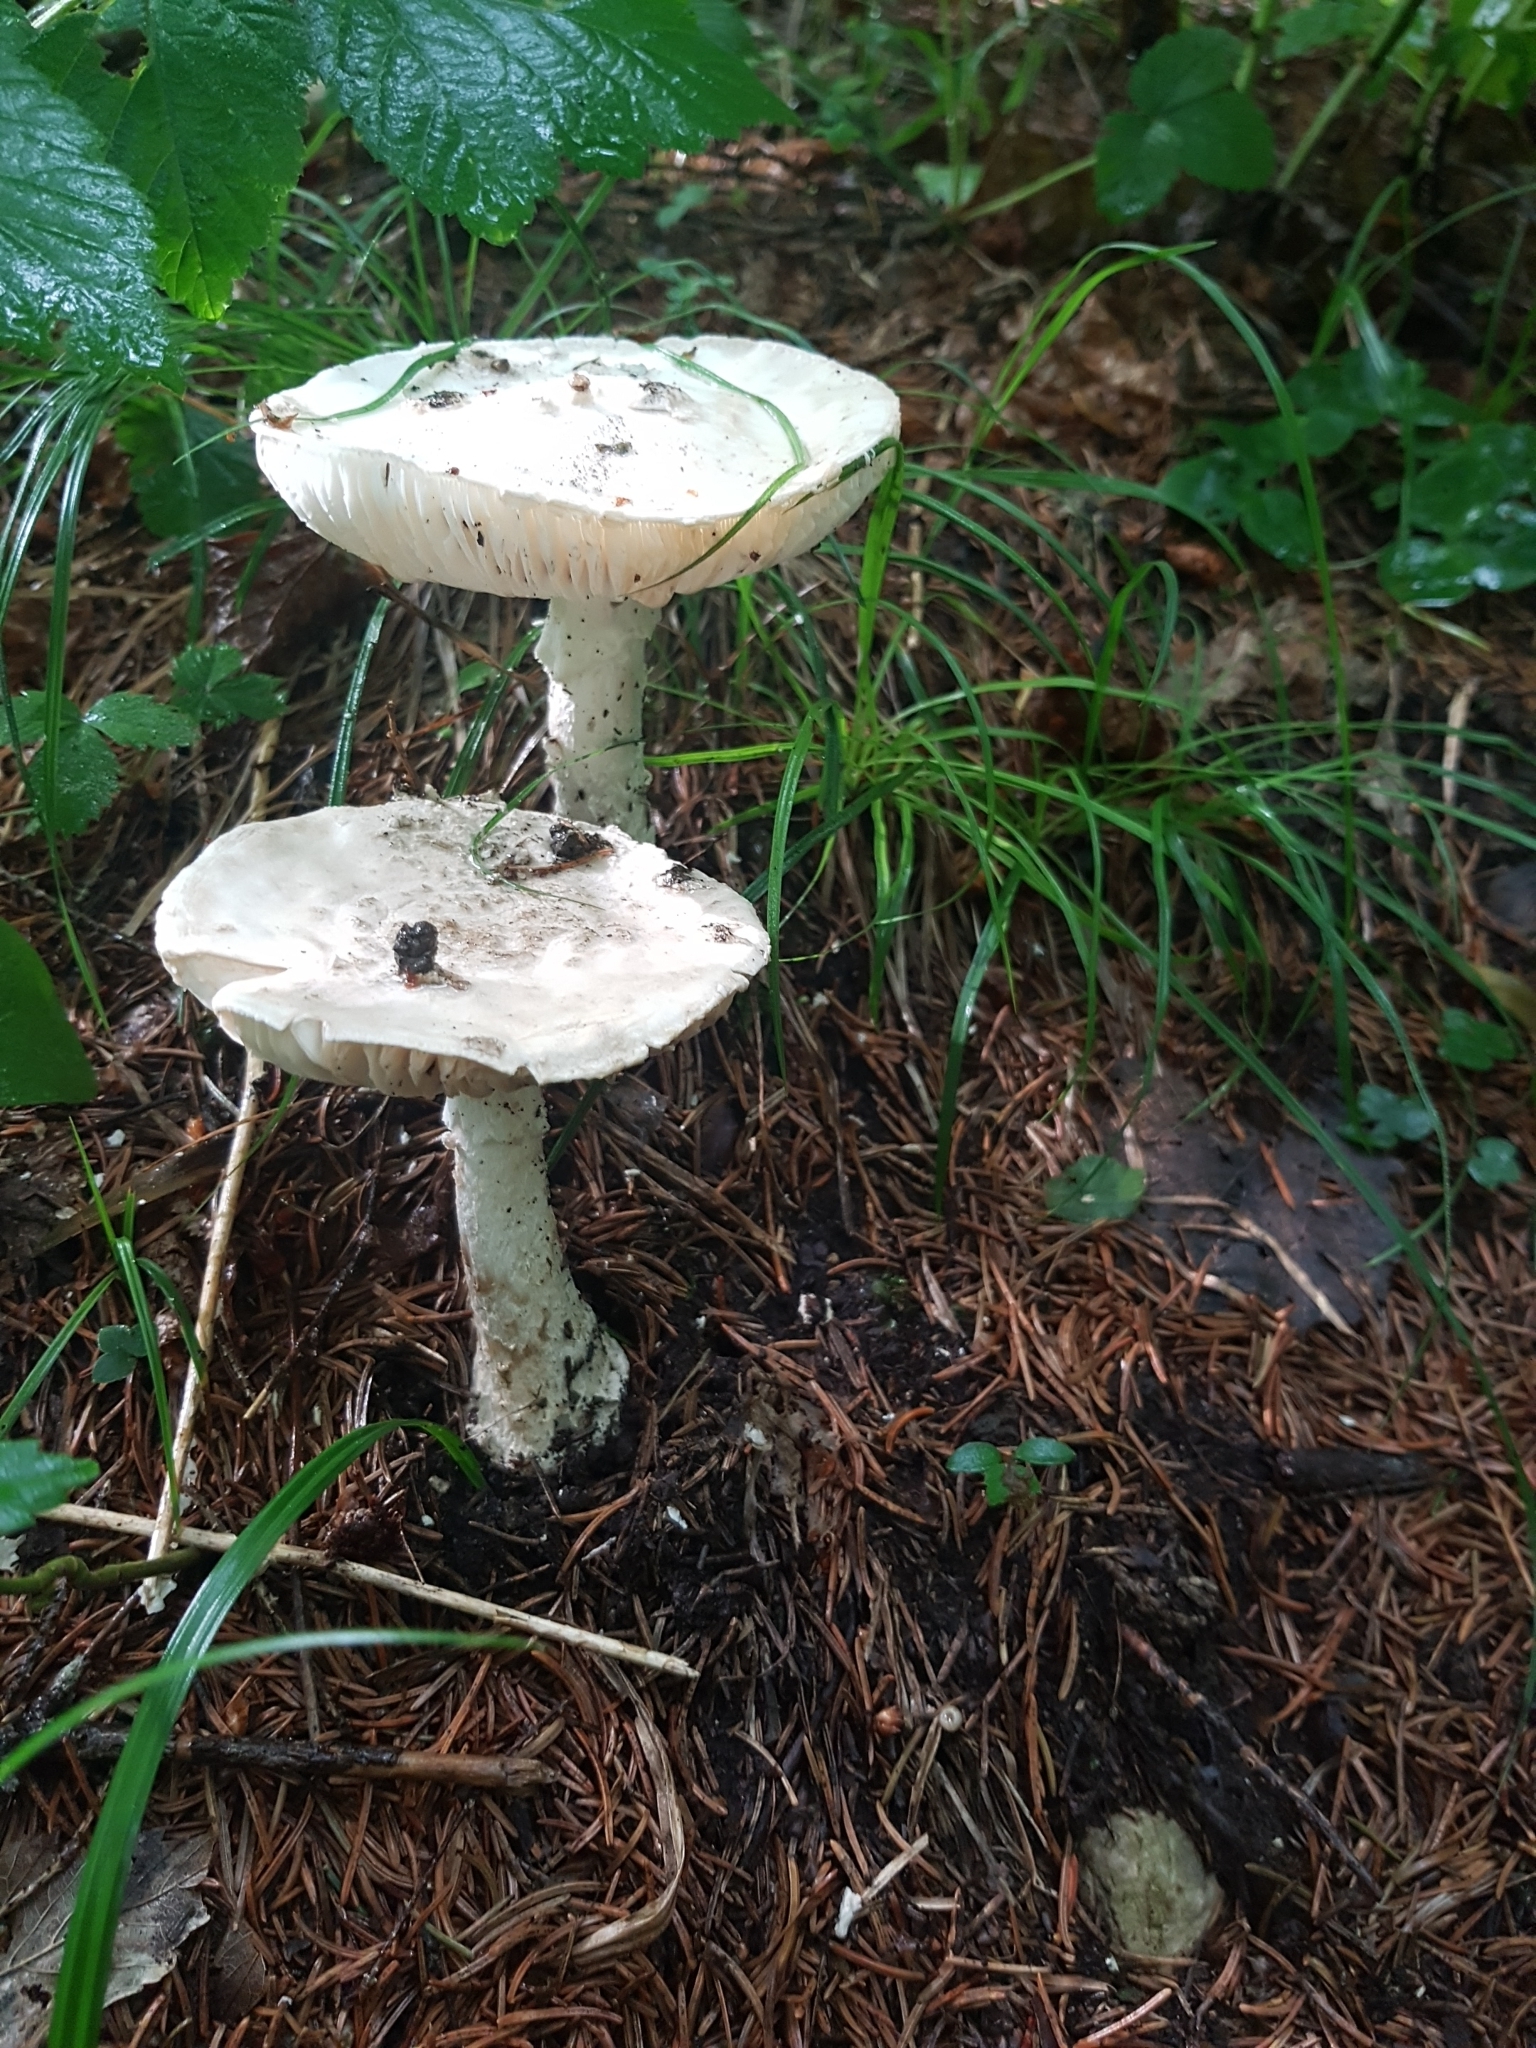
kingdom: Fungi
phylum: Basidiomycota
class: Agaricomycetes
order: Agaricales
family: Amanitaceae
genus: Amanita
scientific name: Amanita strobiliformis
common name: Warted amanita
